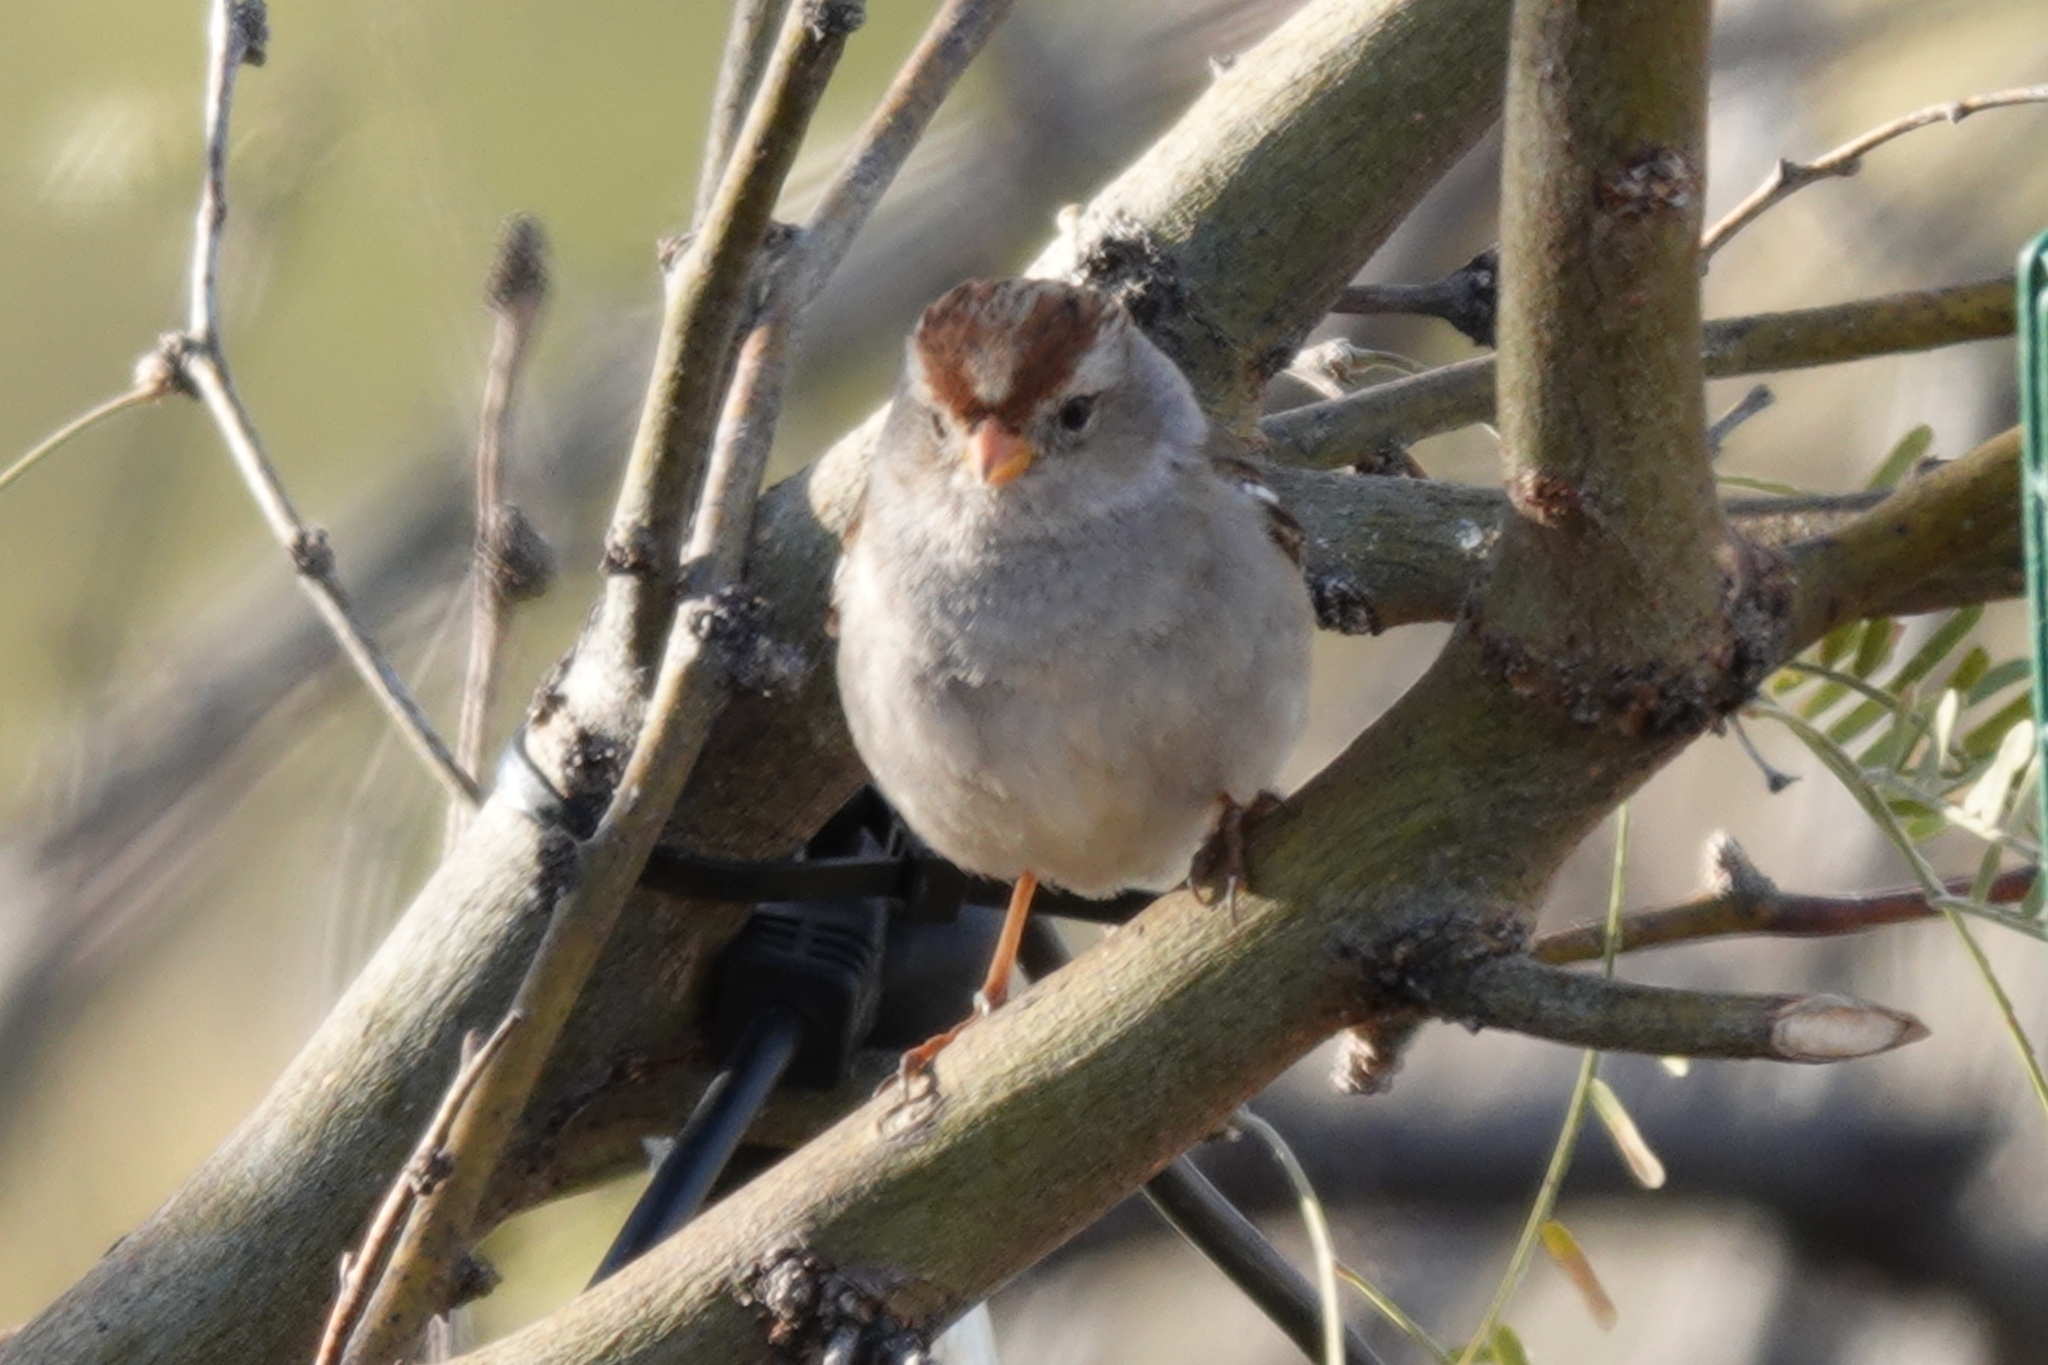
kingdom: Animalia
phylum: Chordata
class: Aves
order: Passeriformes
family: Passerellidae
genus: Zonotrichia
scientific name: Zonotrichia leucophrys
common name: White-crowned sparrow
